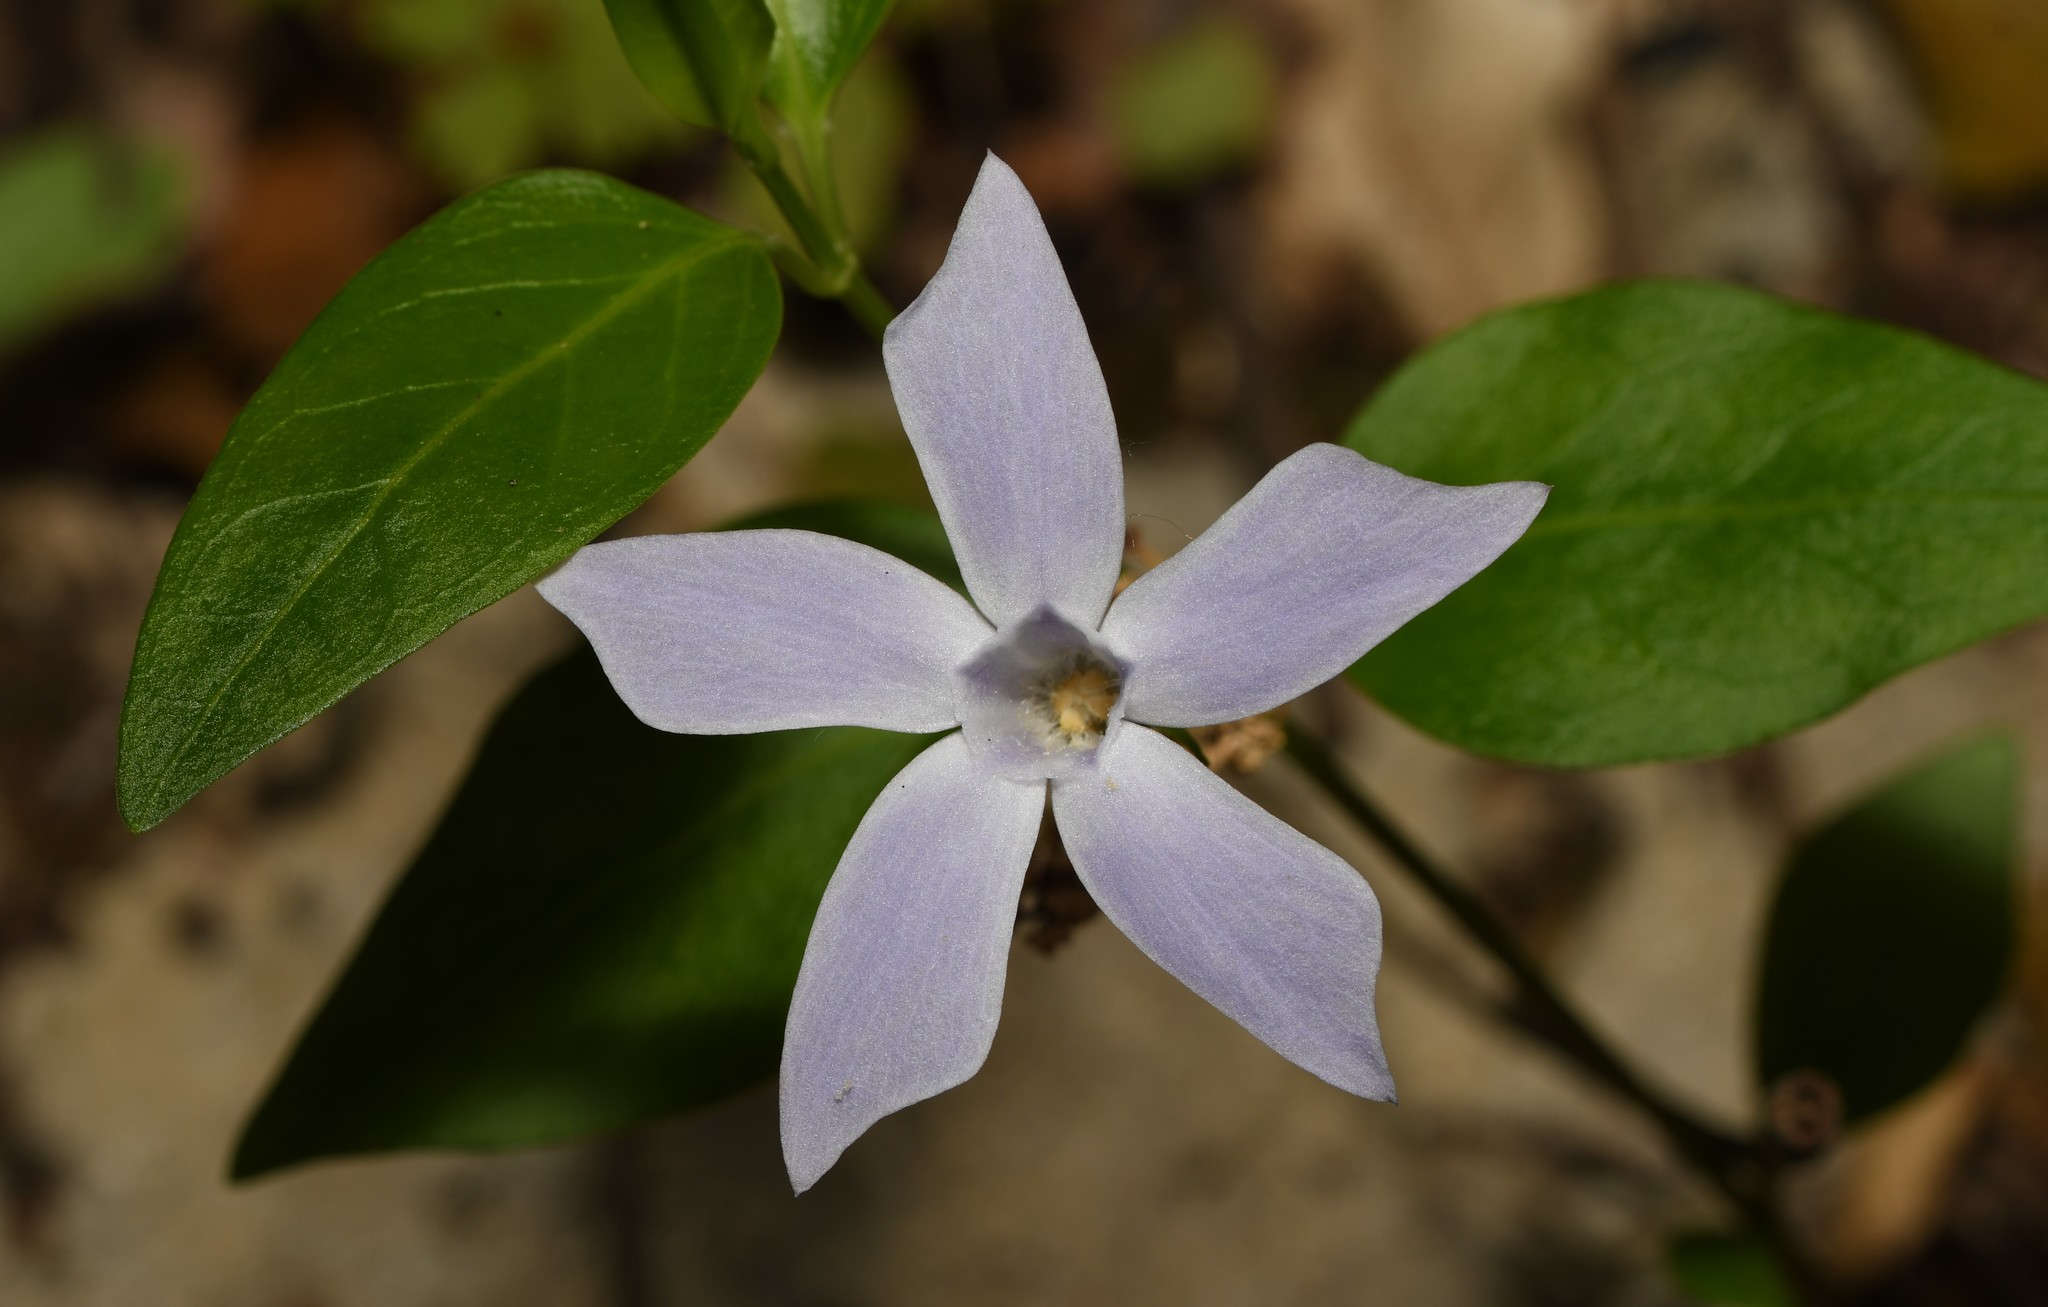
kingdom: Plantae
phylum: Tracheophyta
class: Magnoliopsida
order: Gentianales
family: Apocynaceae
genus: Vinca
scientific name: Vinca difformis
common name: Intermediate periwinkle
